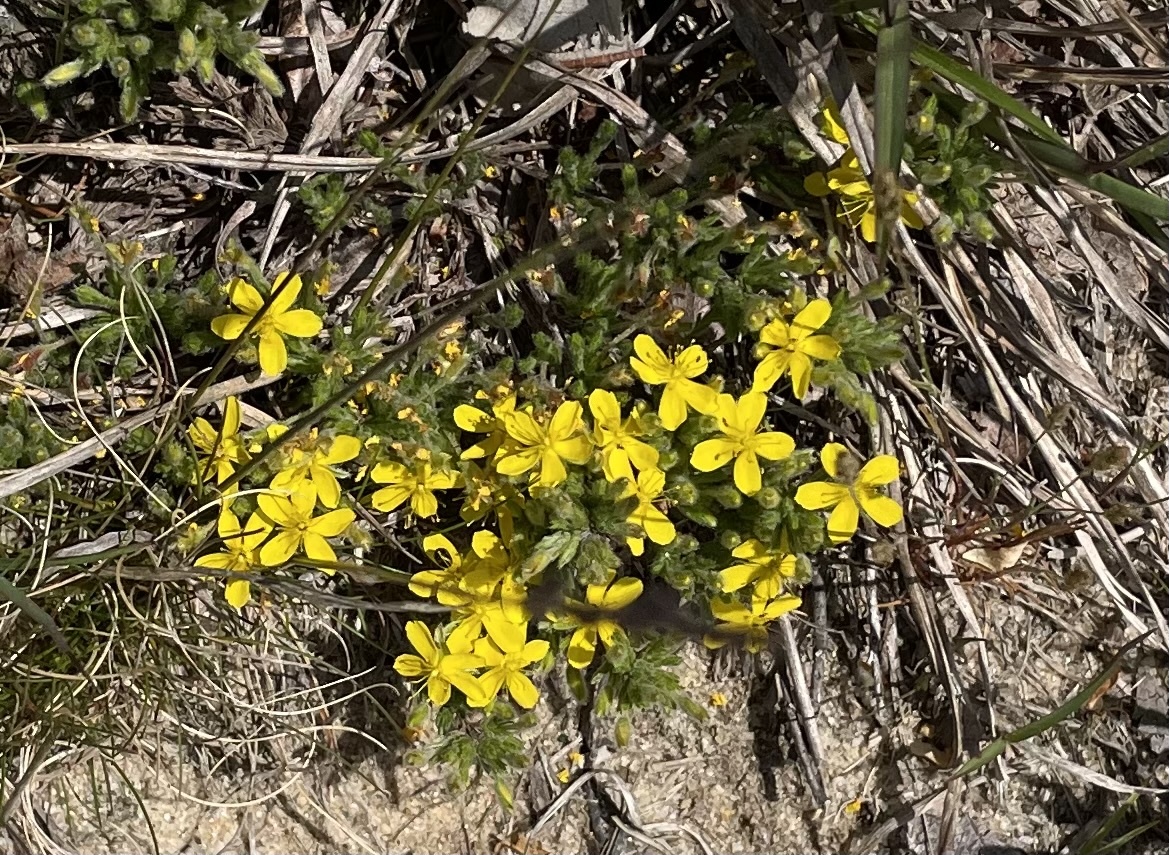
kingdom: Plantae
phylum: Tracheophyta
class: Magnoliopsida
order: Malvales
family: Cistaceae
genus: Hudsonia
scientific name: Hudsonia ericoides
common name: Golden-heather
